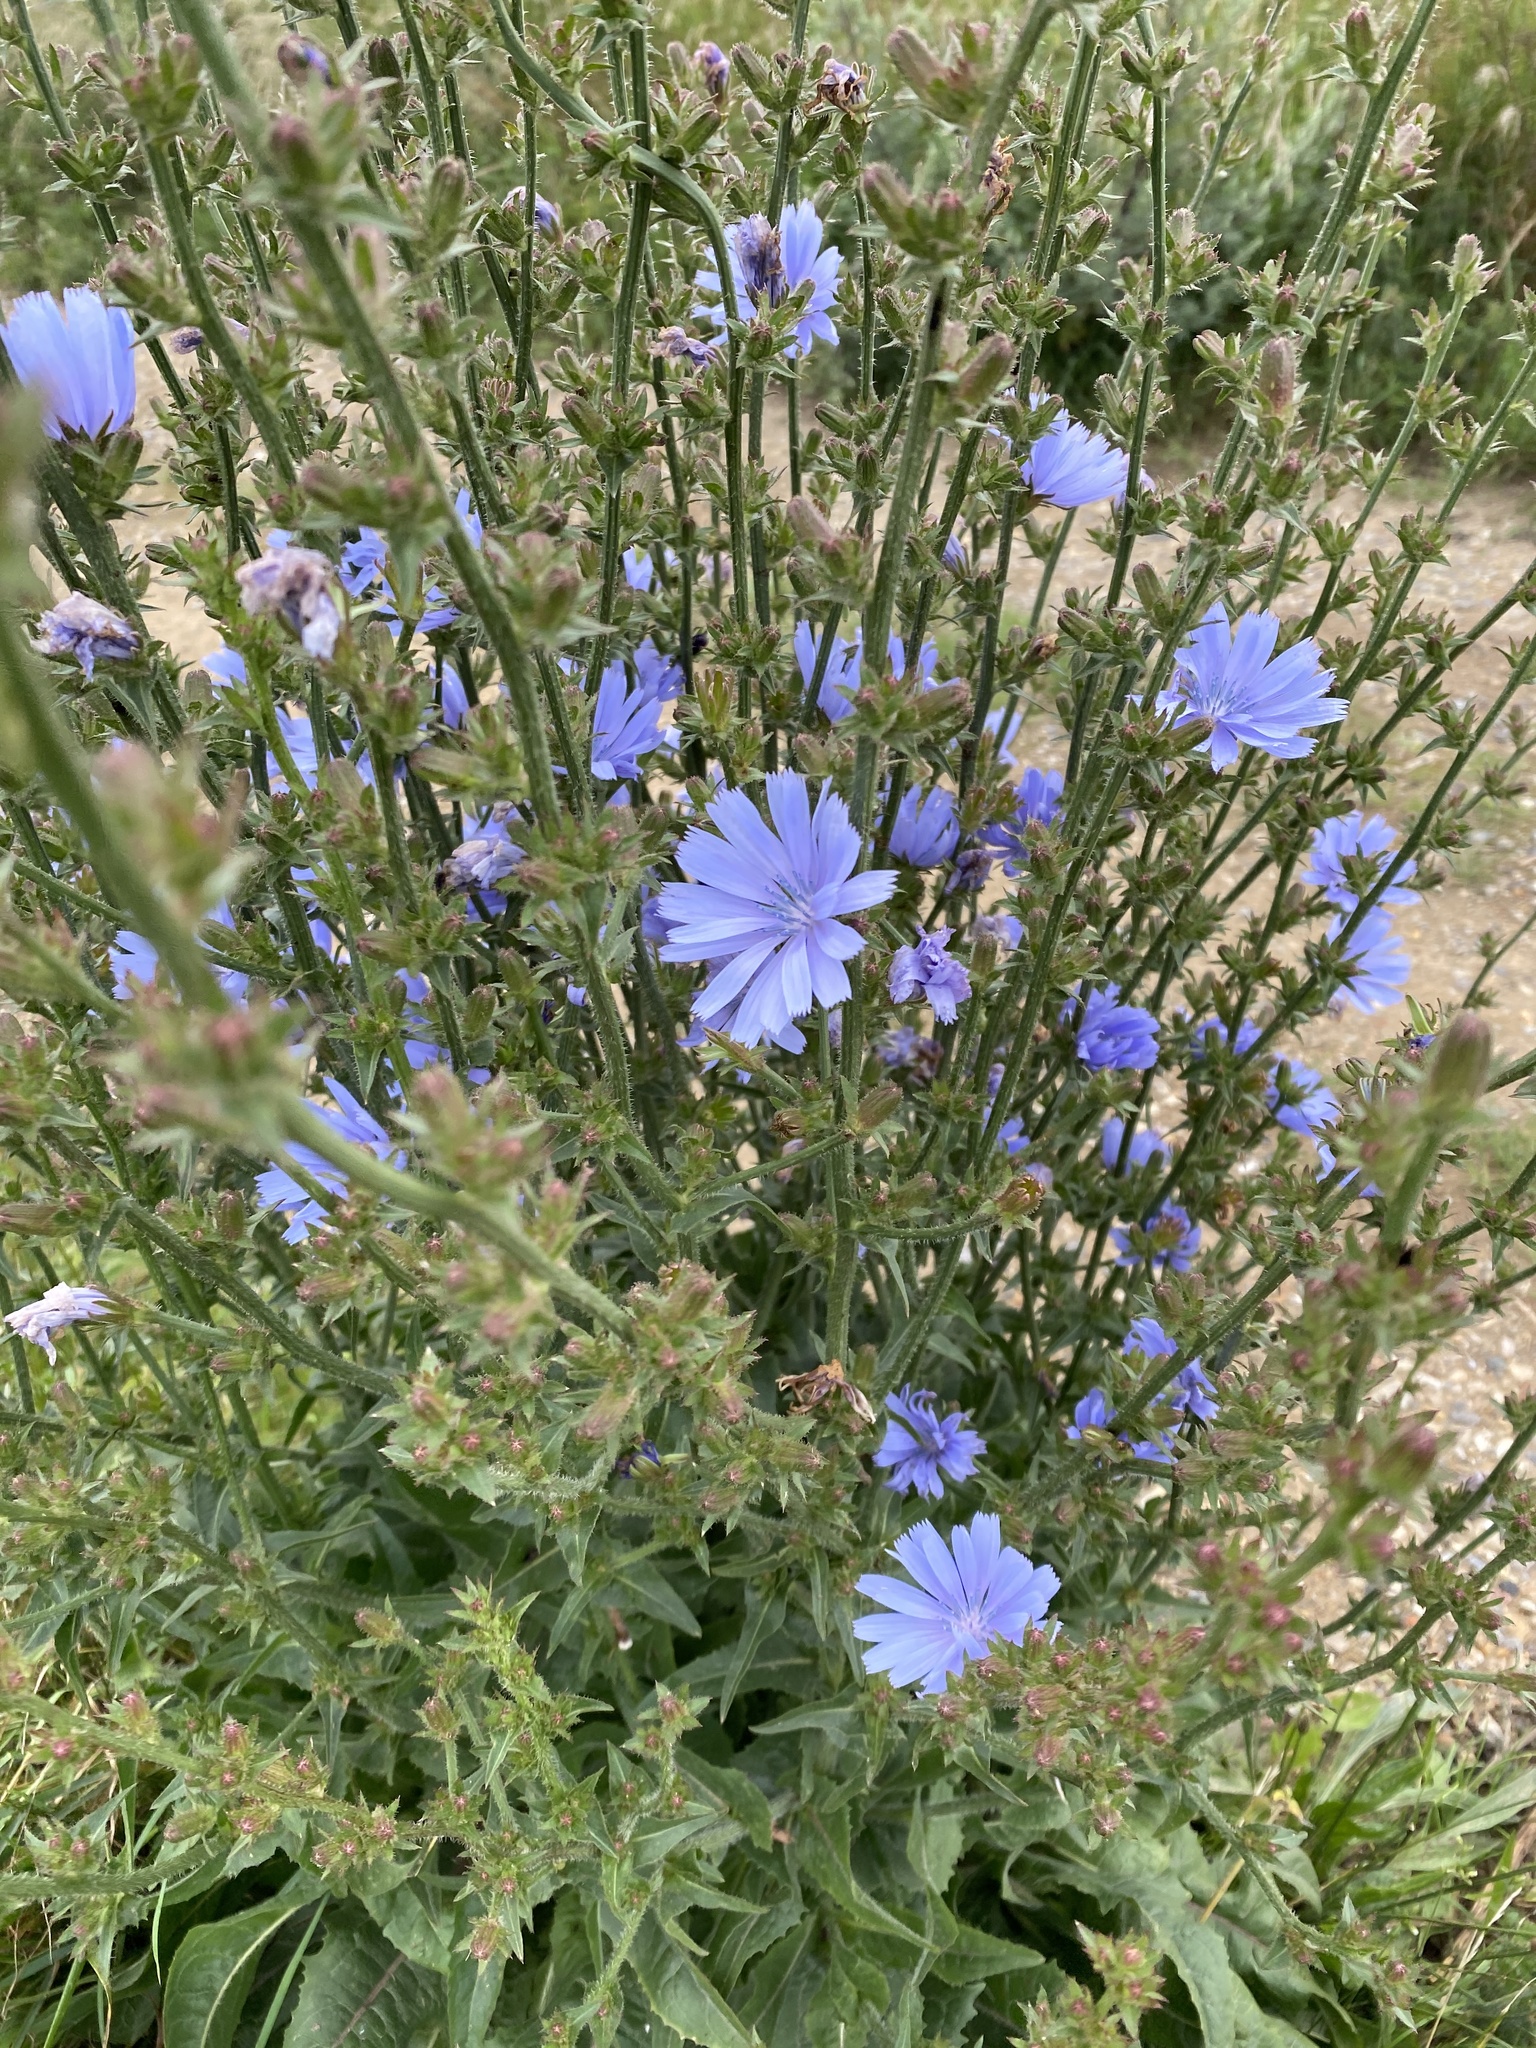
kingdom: Plantae
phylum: Tracheophyta
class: Magnoliopsida
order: Asterales
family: Asteraceae
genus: Cichorium
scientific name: Cichorium intybus
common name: Chicory
